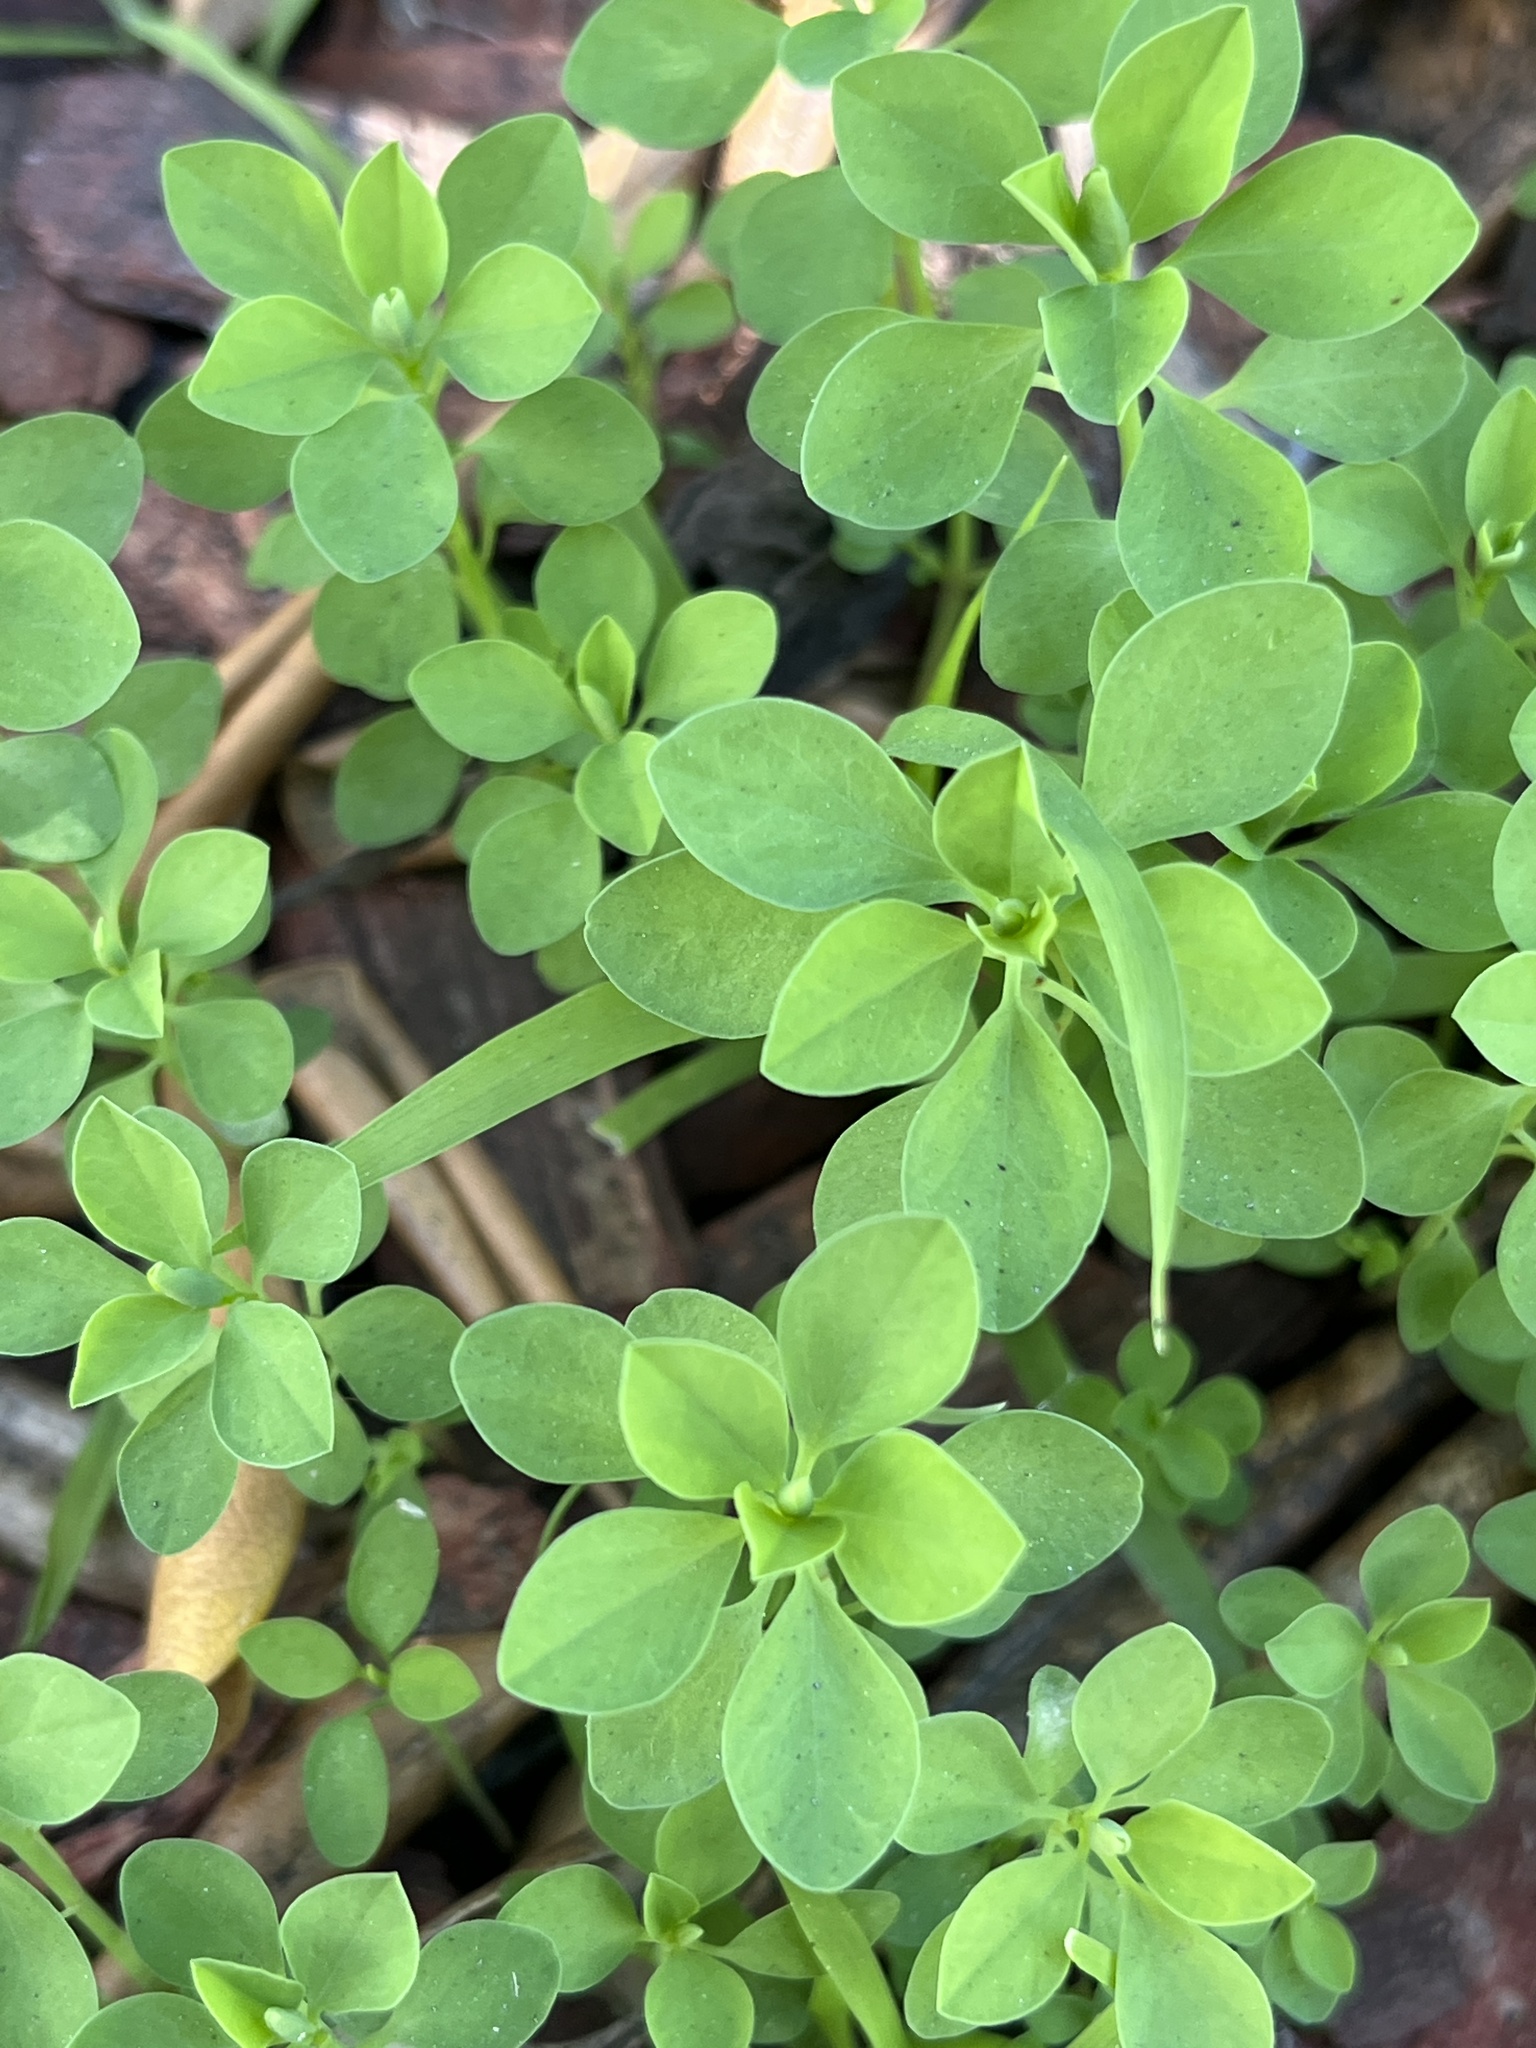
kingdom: Plantae
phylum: Tracheophyta
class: Magnoliopsida
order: Malpighiales
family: Euphorbiaceae
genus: Euphorbia
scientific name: Euphorbia peplus
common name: Petty spurge
